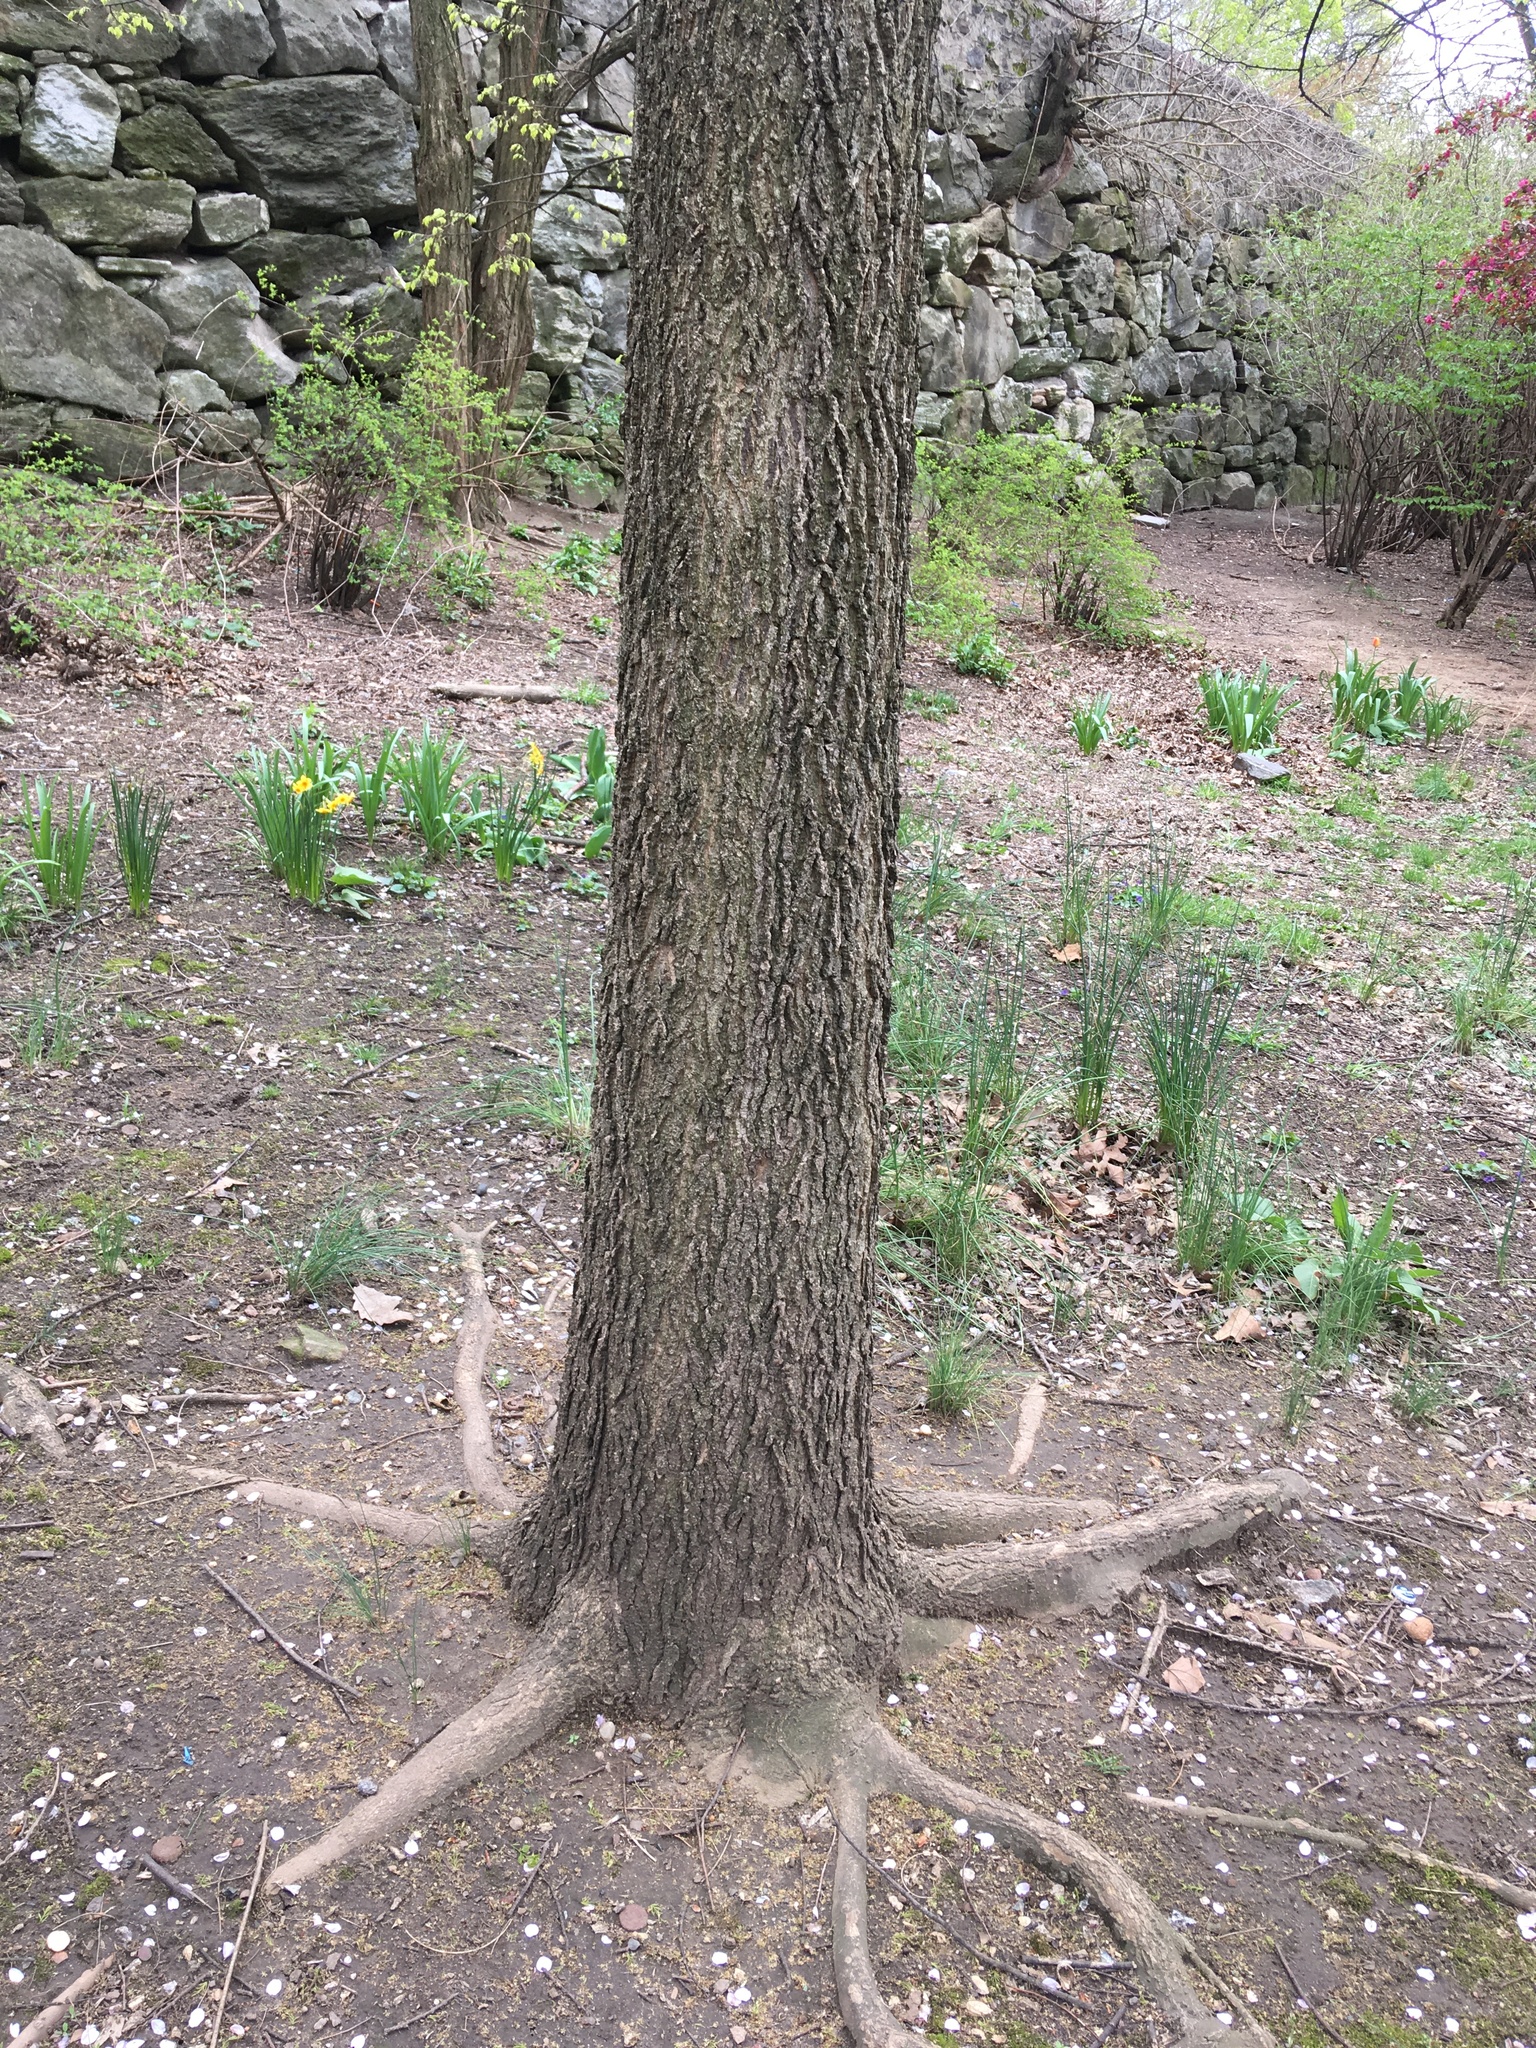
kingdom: Plantae
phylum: Tracheophyta
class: Magnoliopsida
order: Rosales
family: Cannabaceae
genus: Celtis
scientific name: Celtis occidentalis
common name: Common hackberry
